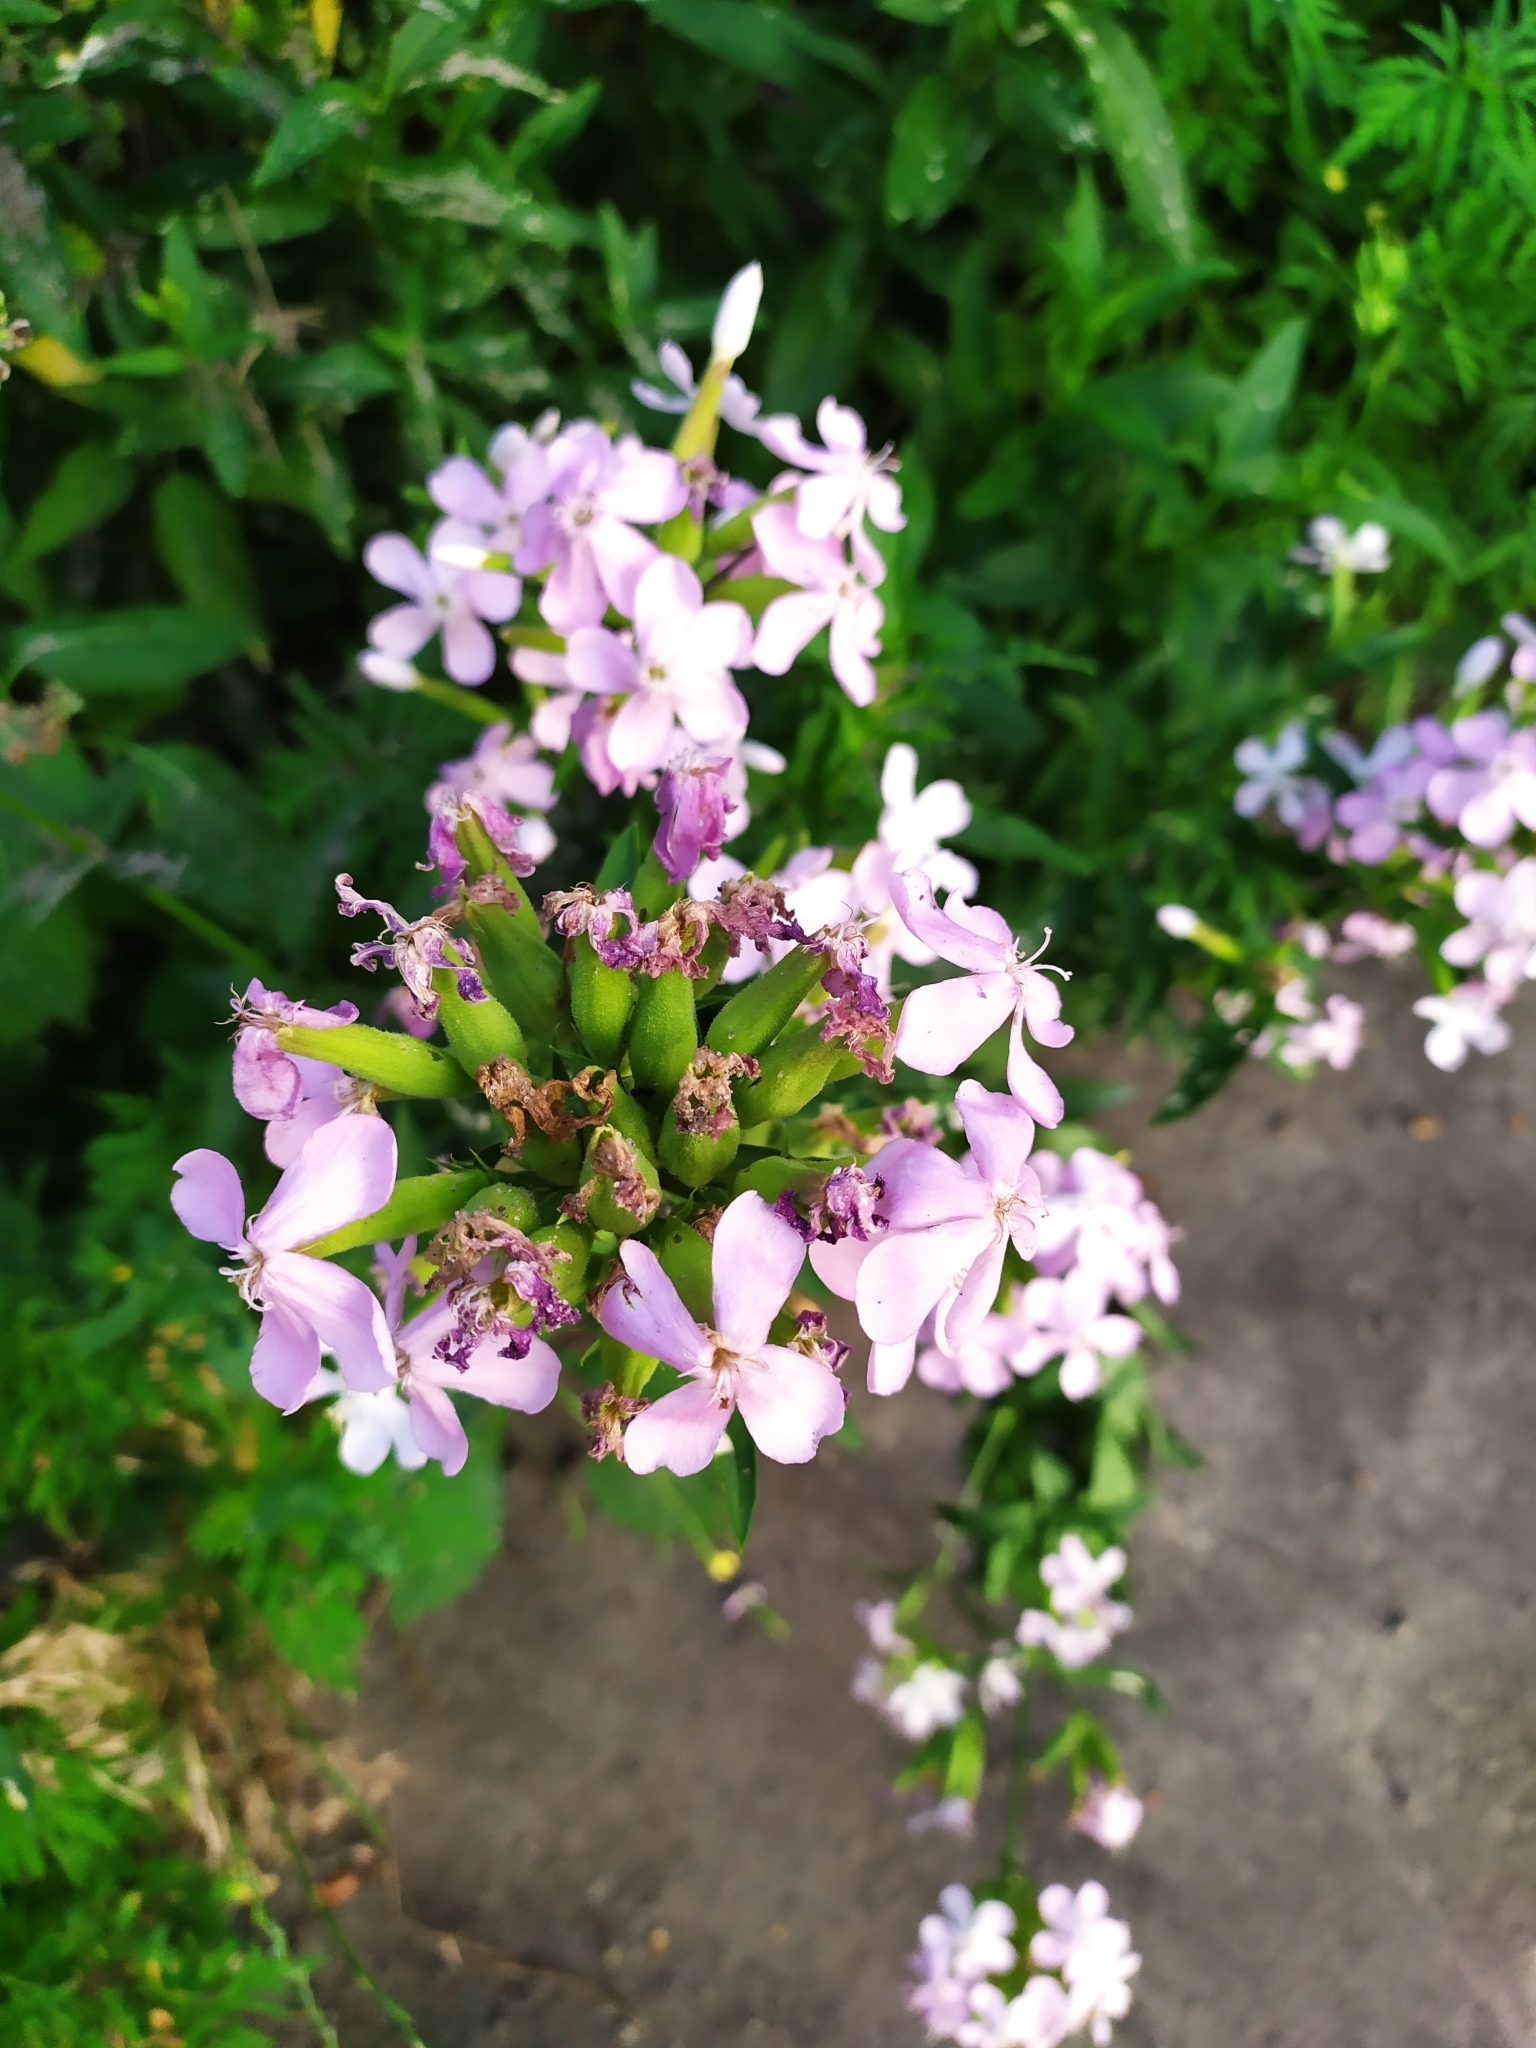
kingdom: Plantae
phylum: Tracheophyta
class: Magnoliopsida
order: Caryophyllales
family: Caryophyllaceae
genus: Saponaria
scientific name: Saponaria officinalis
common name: Soapwort
